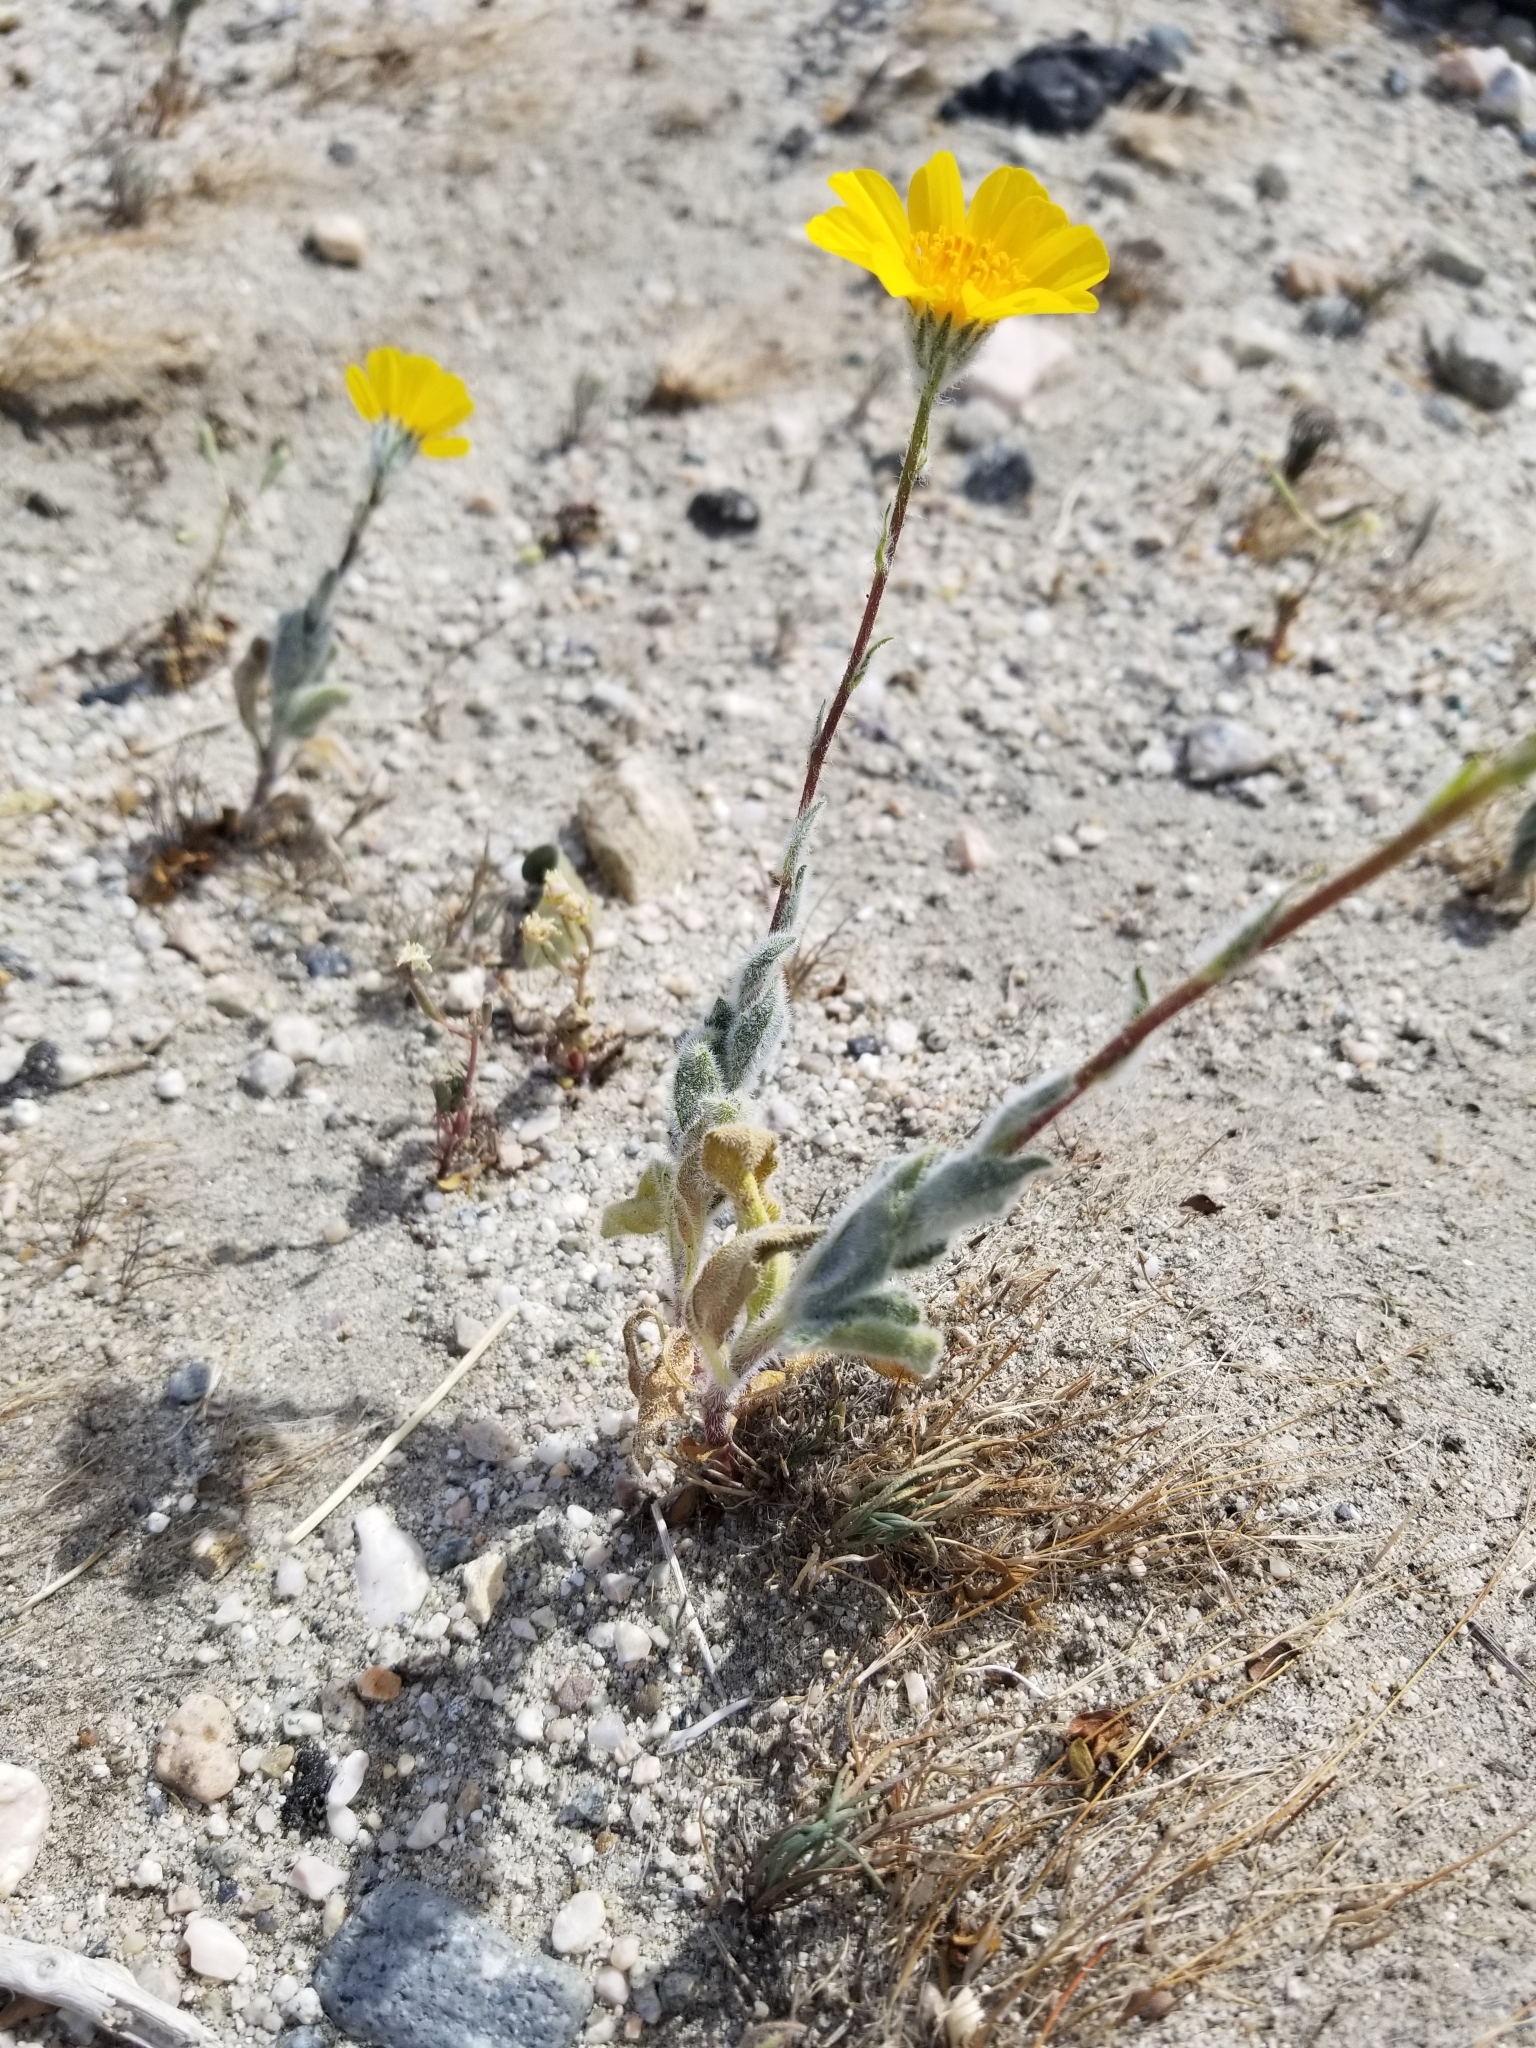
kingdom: Plantae
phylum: Tracheophyta
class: Magnoliopsida
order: Asterales
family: Asteraceae
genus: Geraea
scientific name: Geraea canescens
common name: Desert-gold
